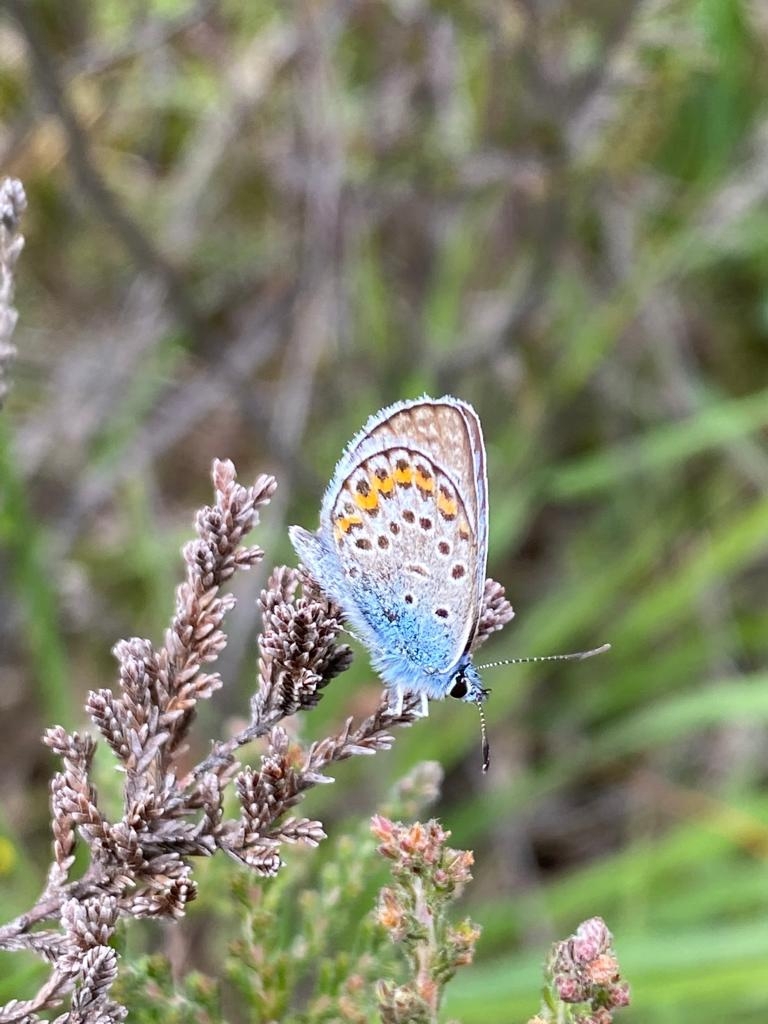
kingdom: Animalia
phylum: Arthropoda
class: Insecta
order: Lepidoptera
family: Lycaenidae
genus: Plebejus
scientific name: Plebejus argus
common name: Silver-studded blue
